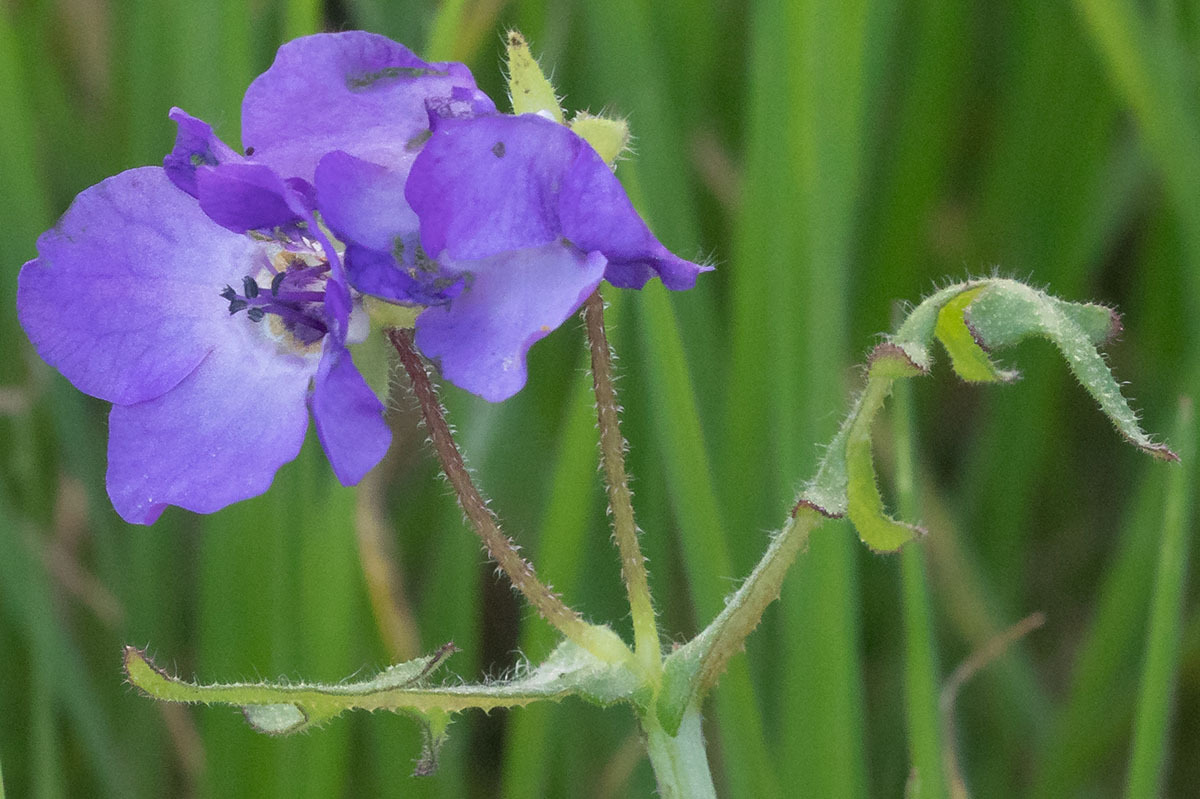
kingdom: Plantae
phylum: Tracheophyta
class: Magnoliopsida
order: Boraginales
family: Hydrophyllaceae
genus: Pholistoma
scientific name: Pholistoma auritum
